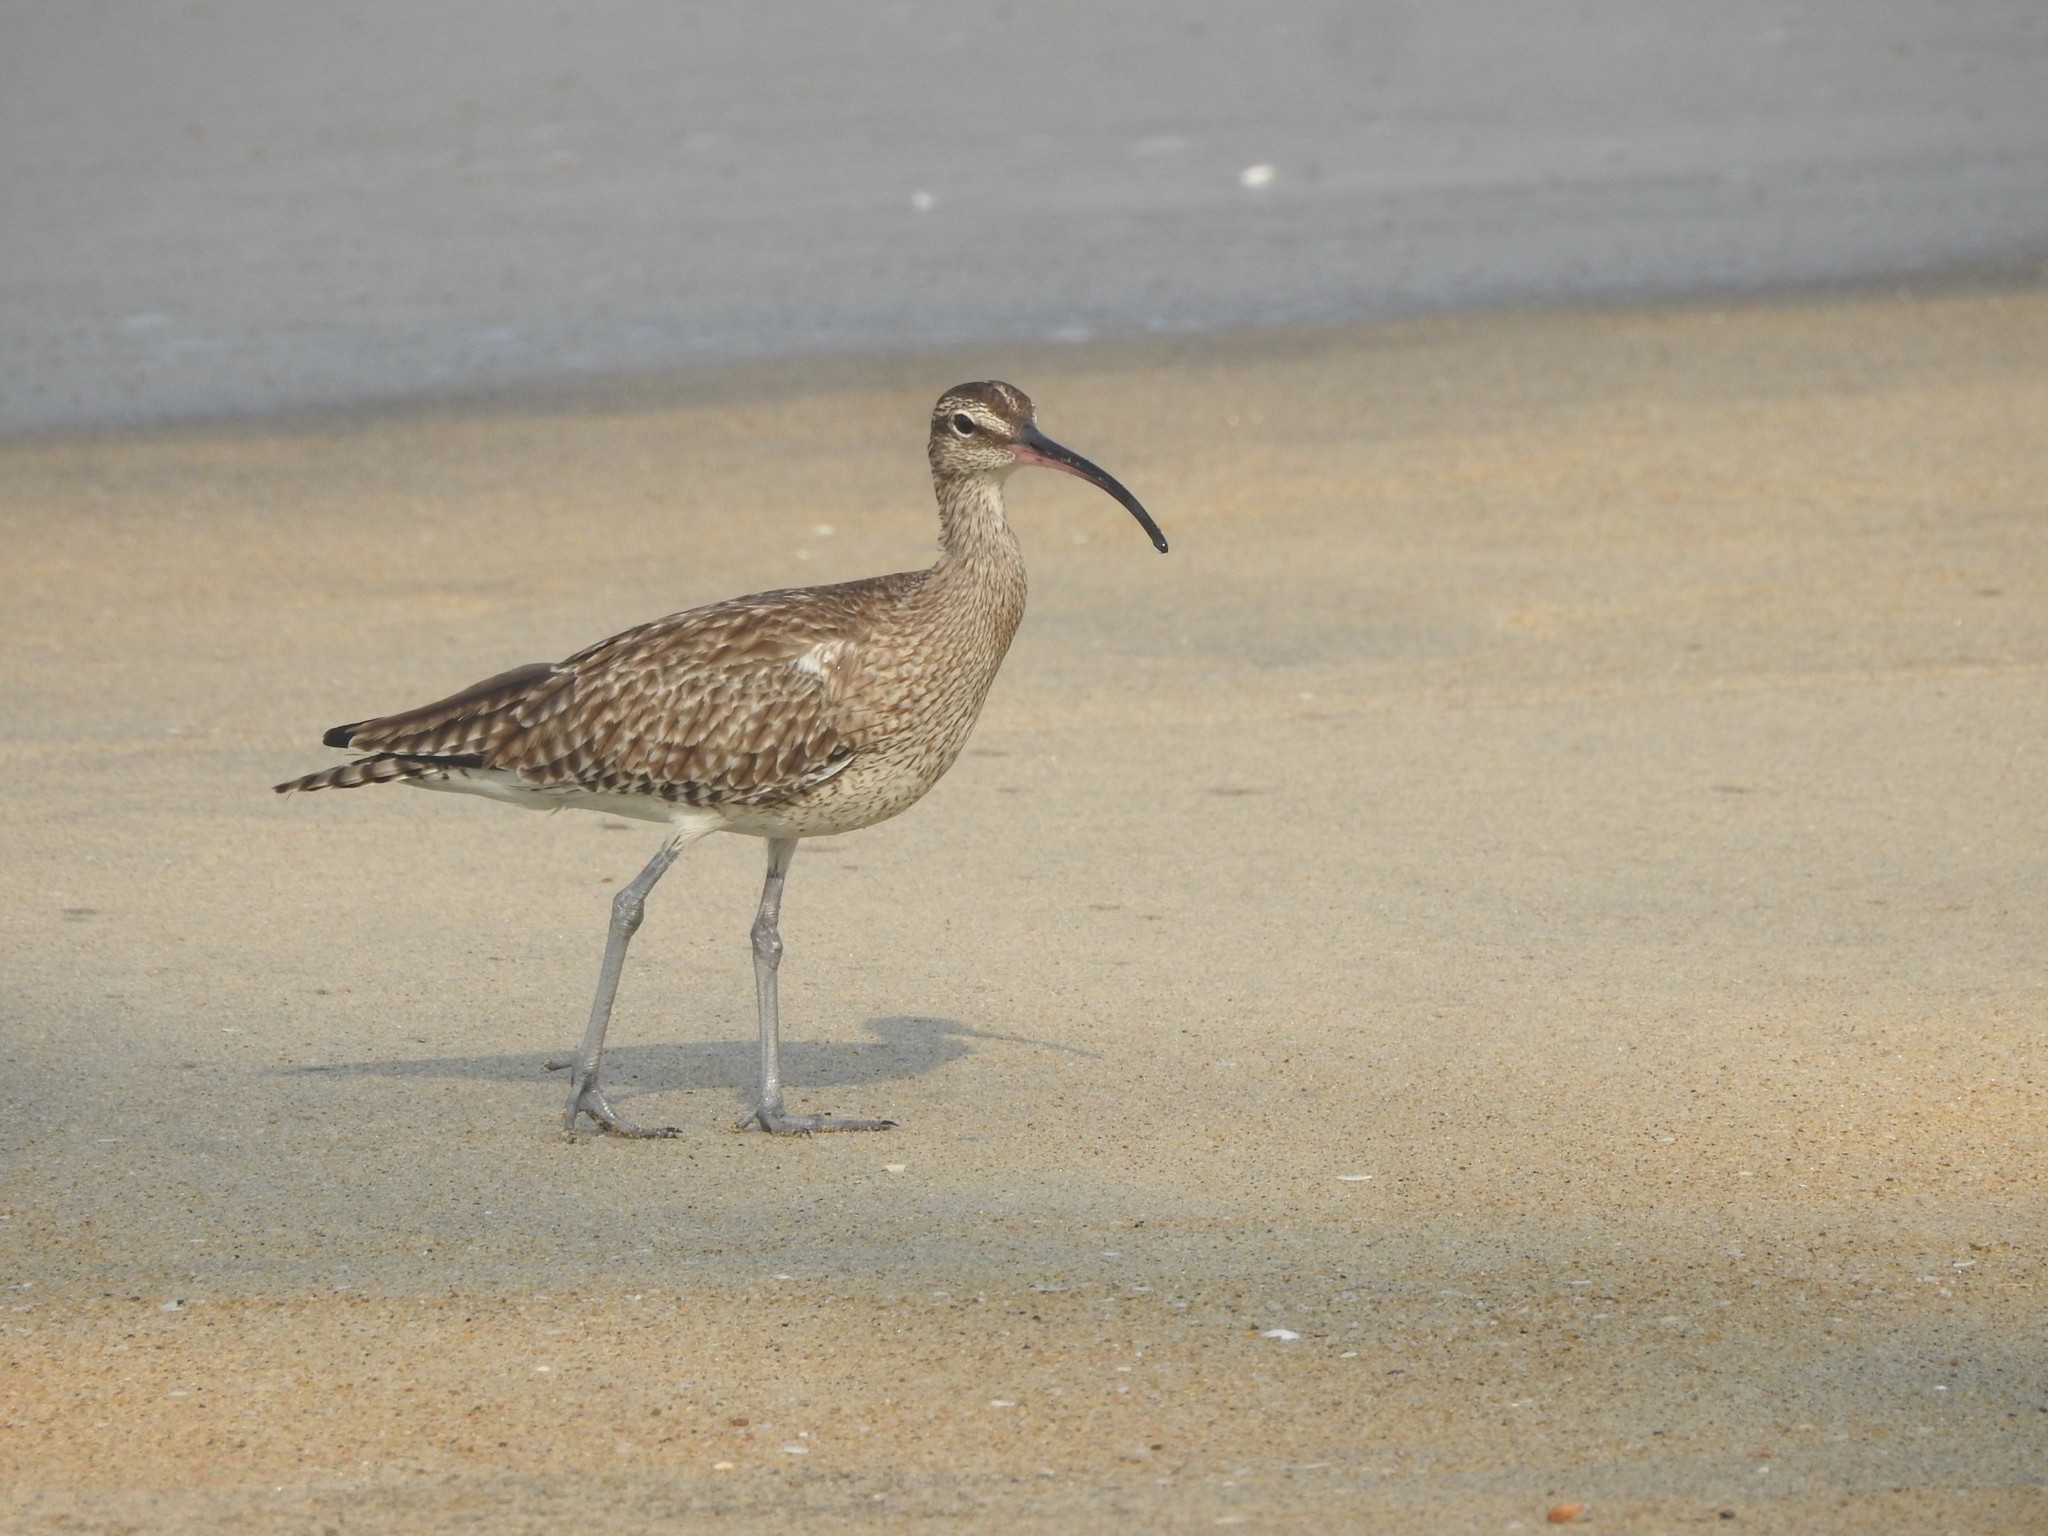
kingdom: Animalia
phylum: Chordata
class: Aves
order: Charadriiformes
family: Scolopacidae
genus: Numenius
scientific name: Numenius phaeopus
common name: Whimbrel
